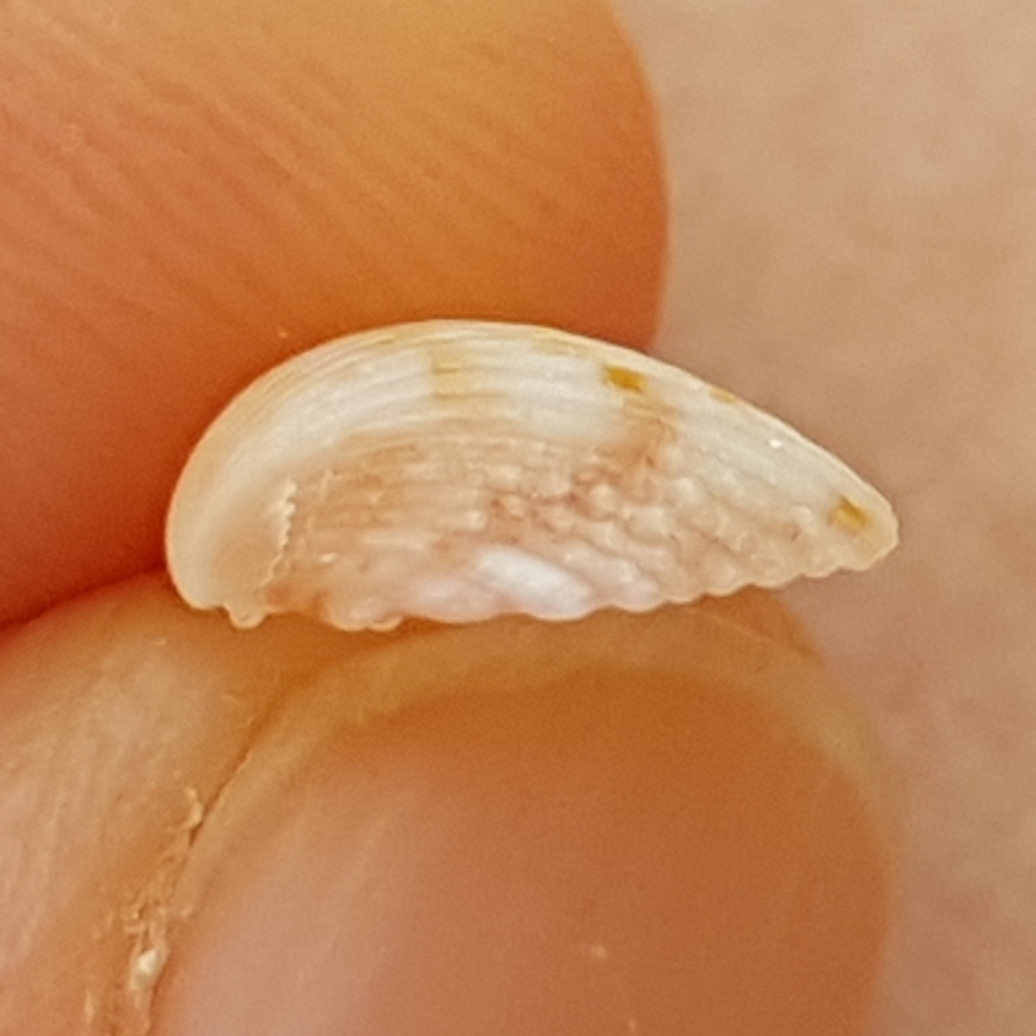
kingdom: Animalia
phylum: Mollusca
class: Bivalvia
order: Cardiida
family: Cardiidae
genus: Papillicardium
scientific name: Papillicardium papillosum
